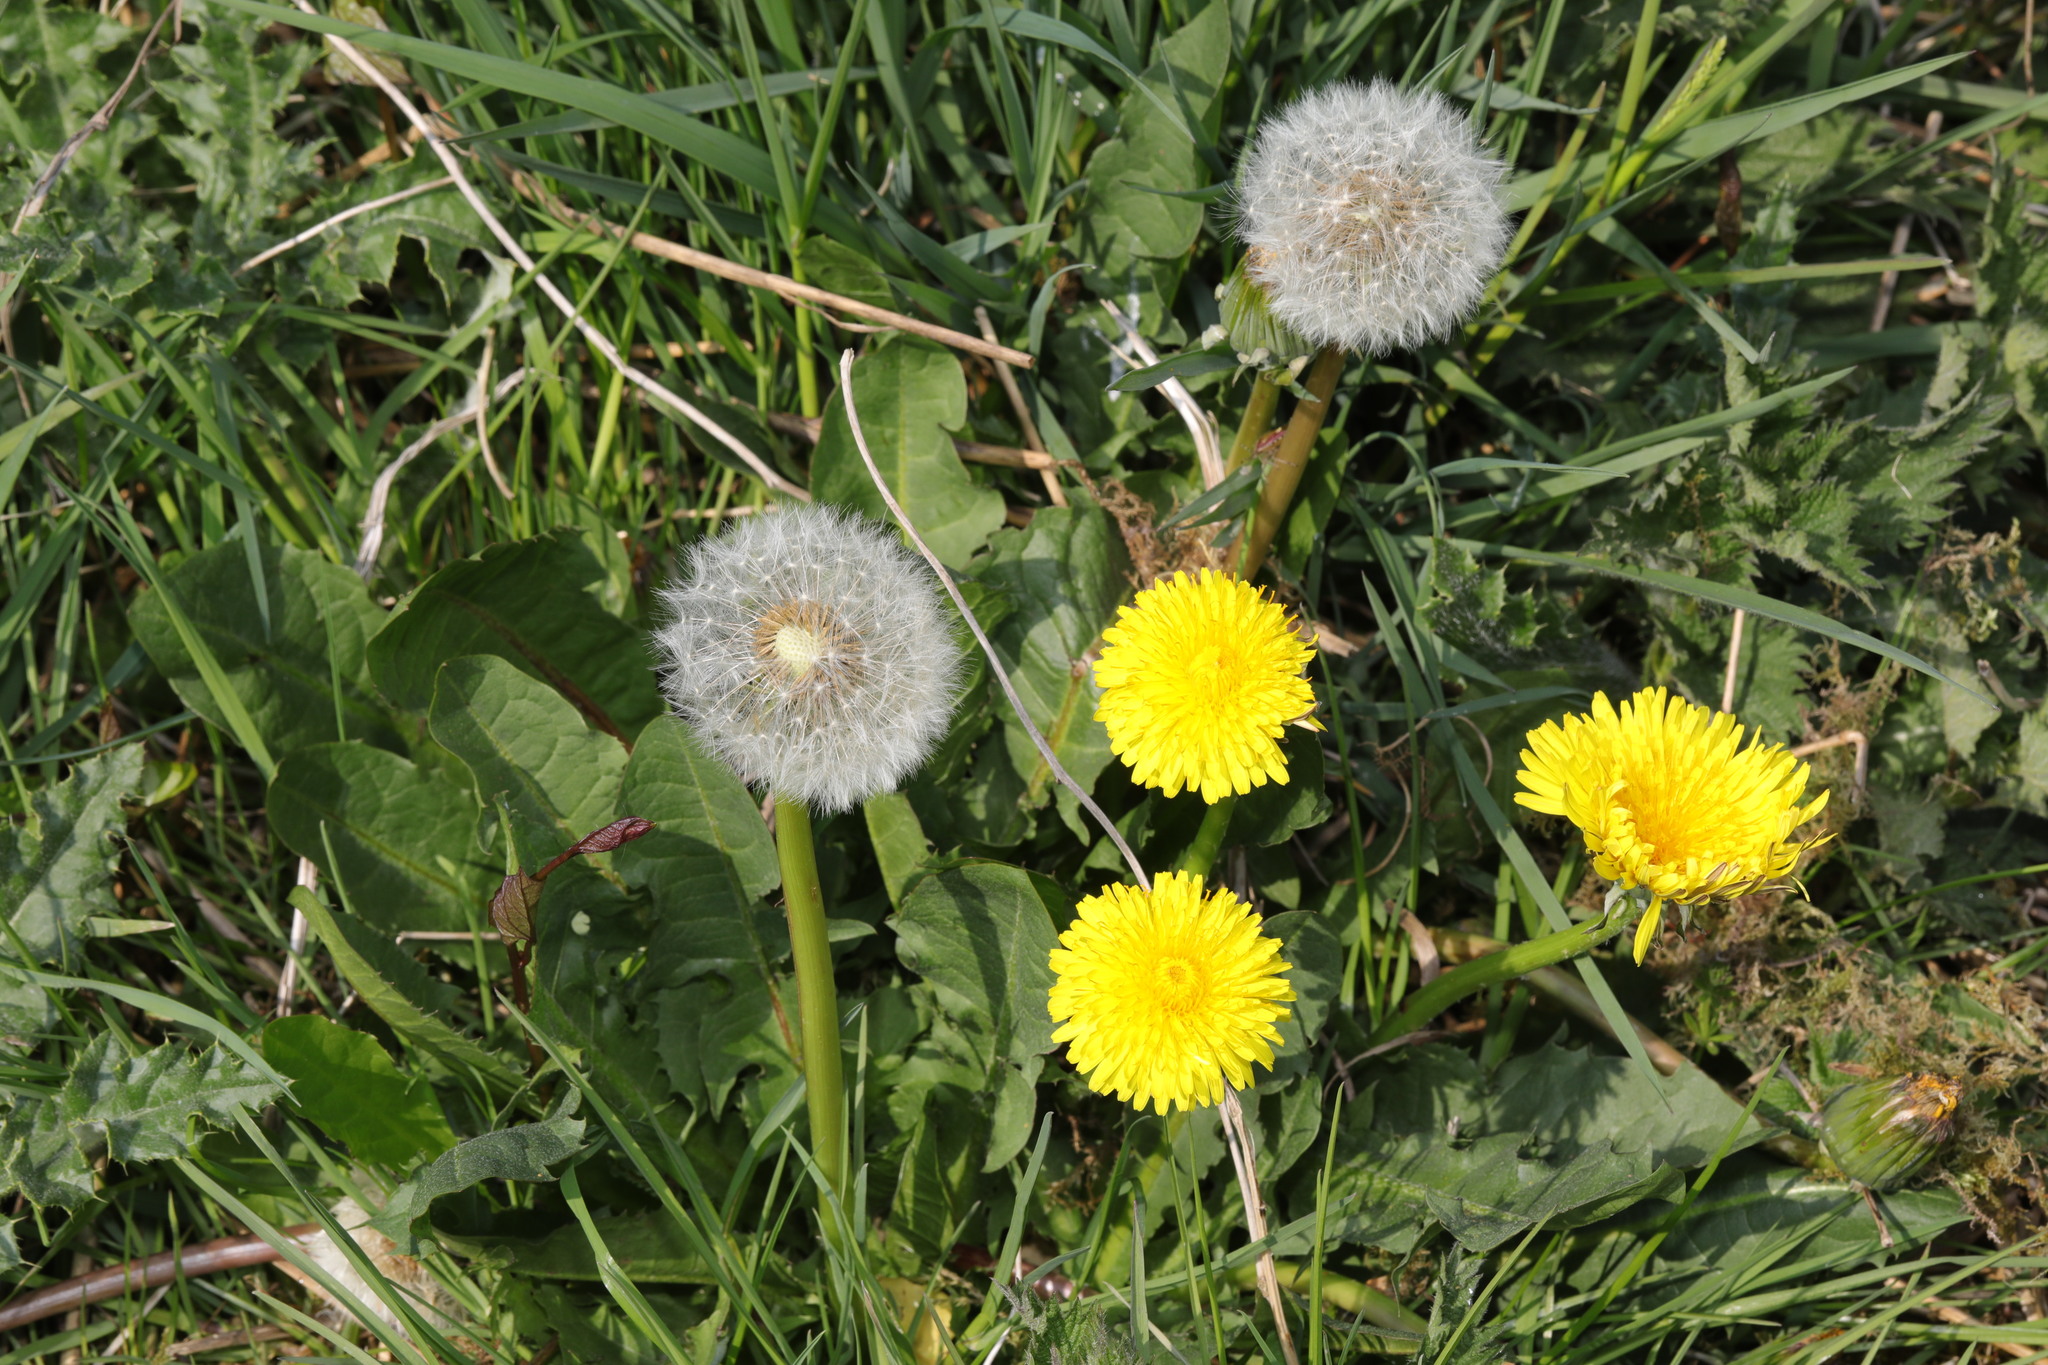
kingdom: Plantae
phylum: Tracheophyta
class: Magnoliopsida
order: Asterales
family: Asteraceae
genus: Taraxacum
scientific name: Taraxacum officinale
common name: Common dandelion
